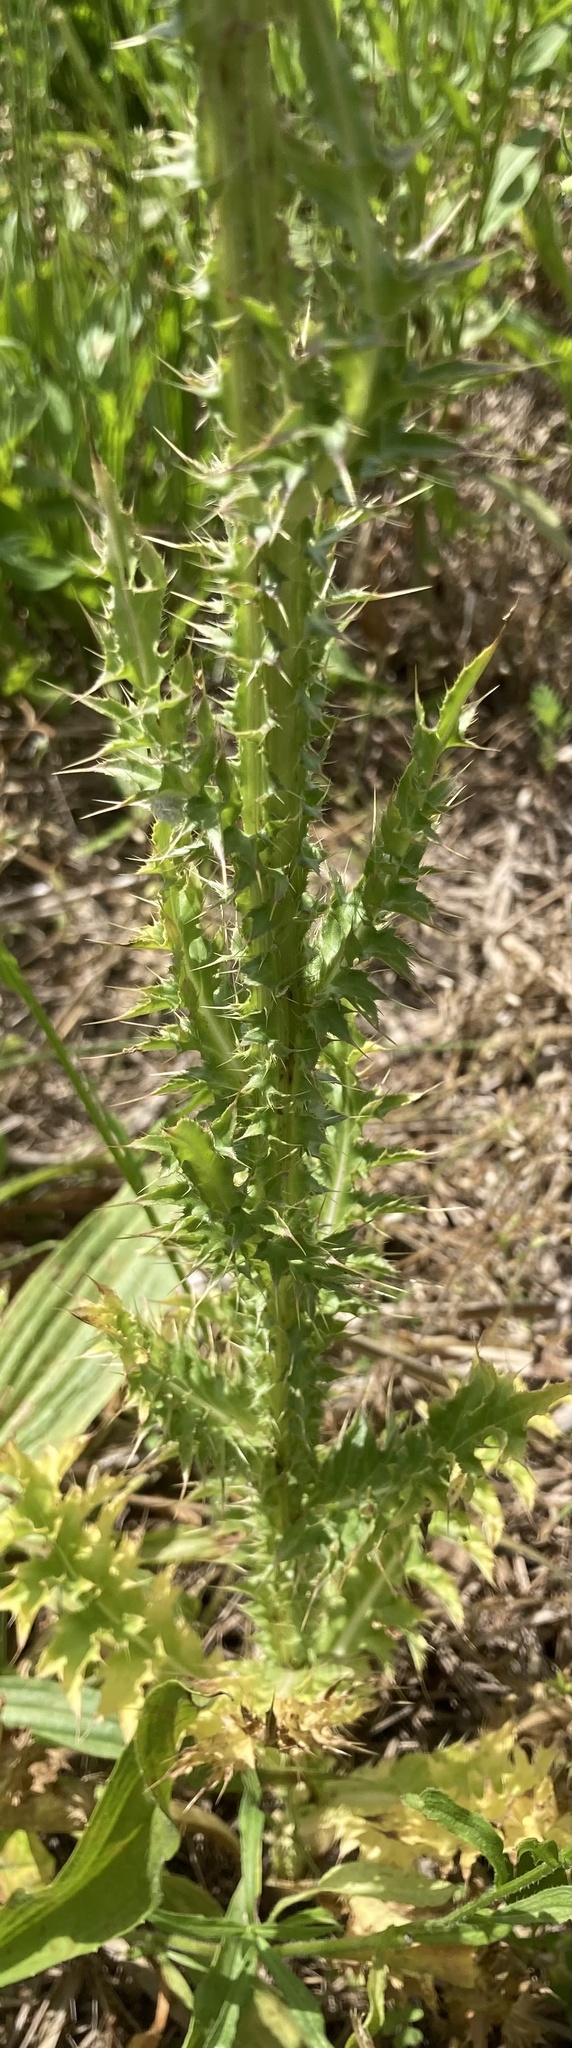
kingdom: Plantae
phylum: Tracheophyta
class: Magnoliopsida
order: Asterales
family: Asteraceae
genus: Carduus
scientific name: Carduus nutans
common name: Musk thistle
